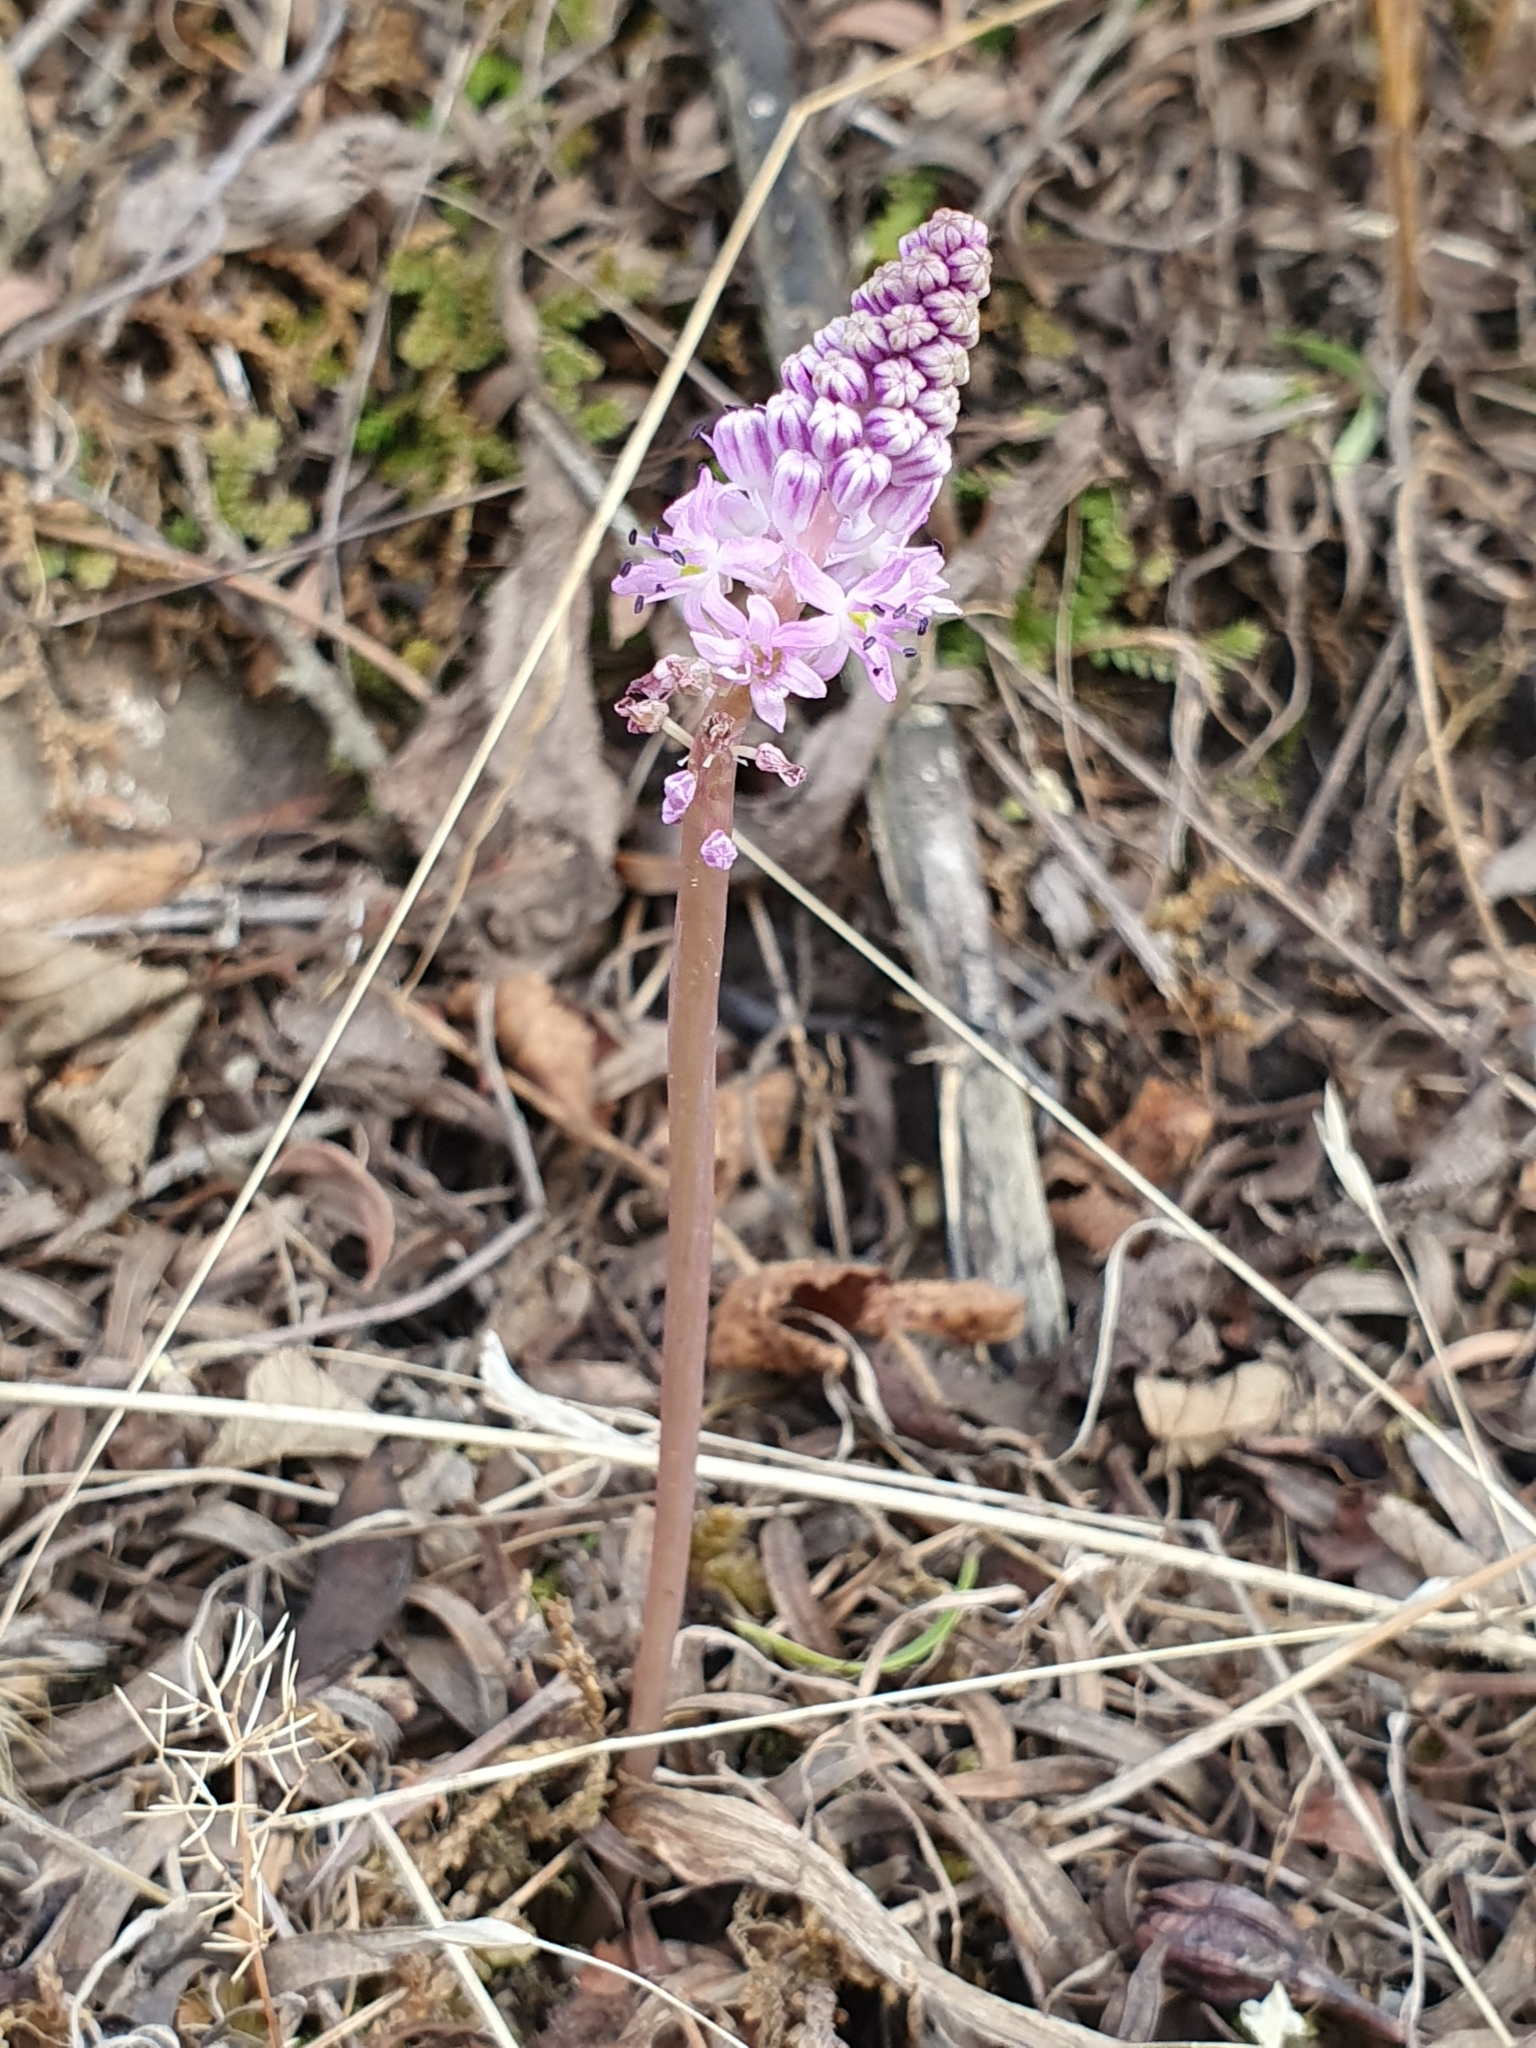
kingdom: Plantae
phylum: Tracheophyta
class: Liliopsida
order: Asparagales
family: Asparagaceae
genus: Barnardia
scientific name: Barnardia numidica
